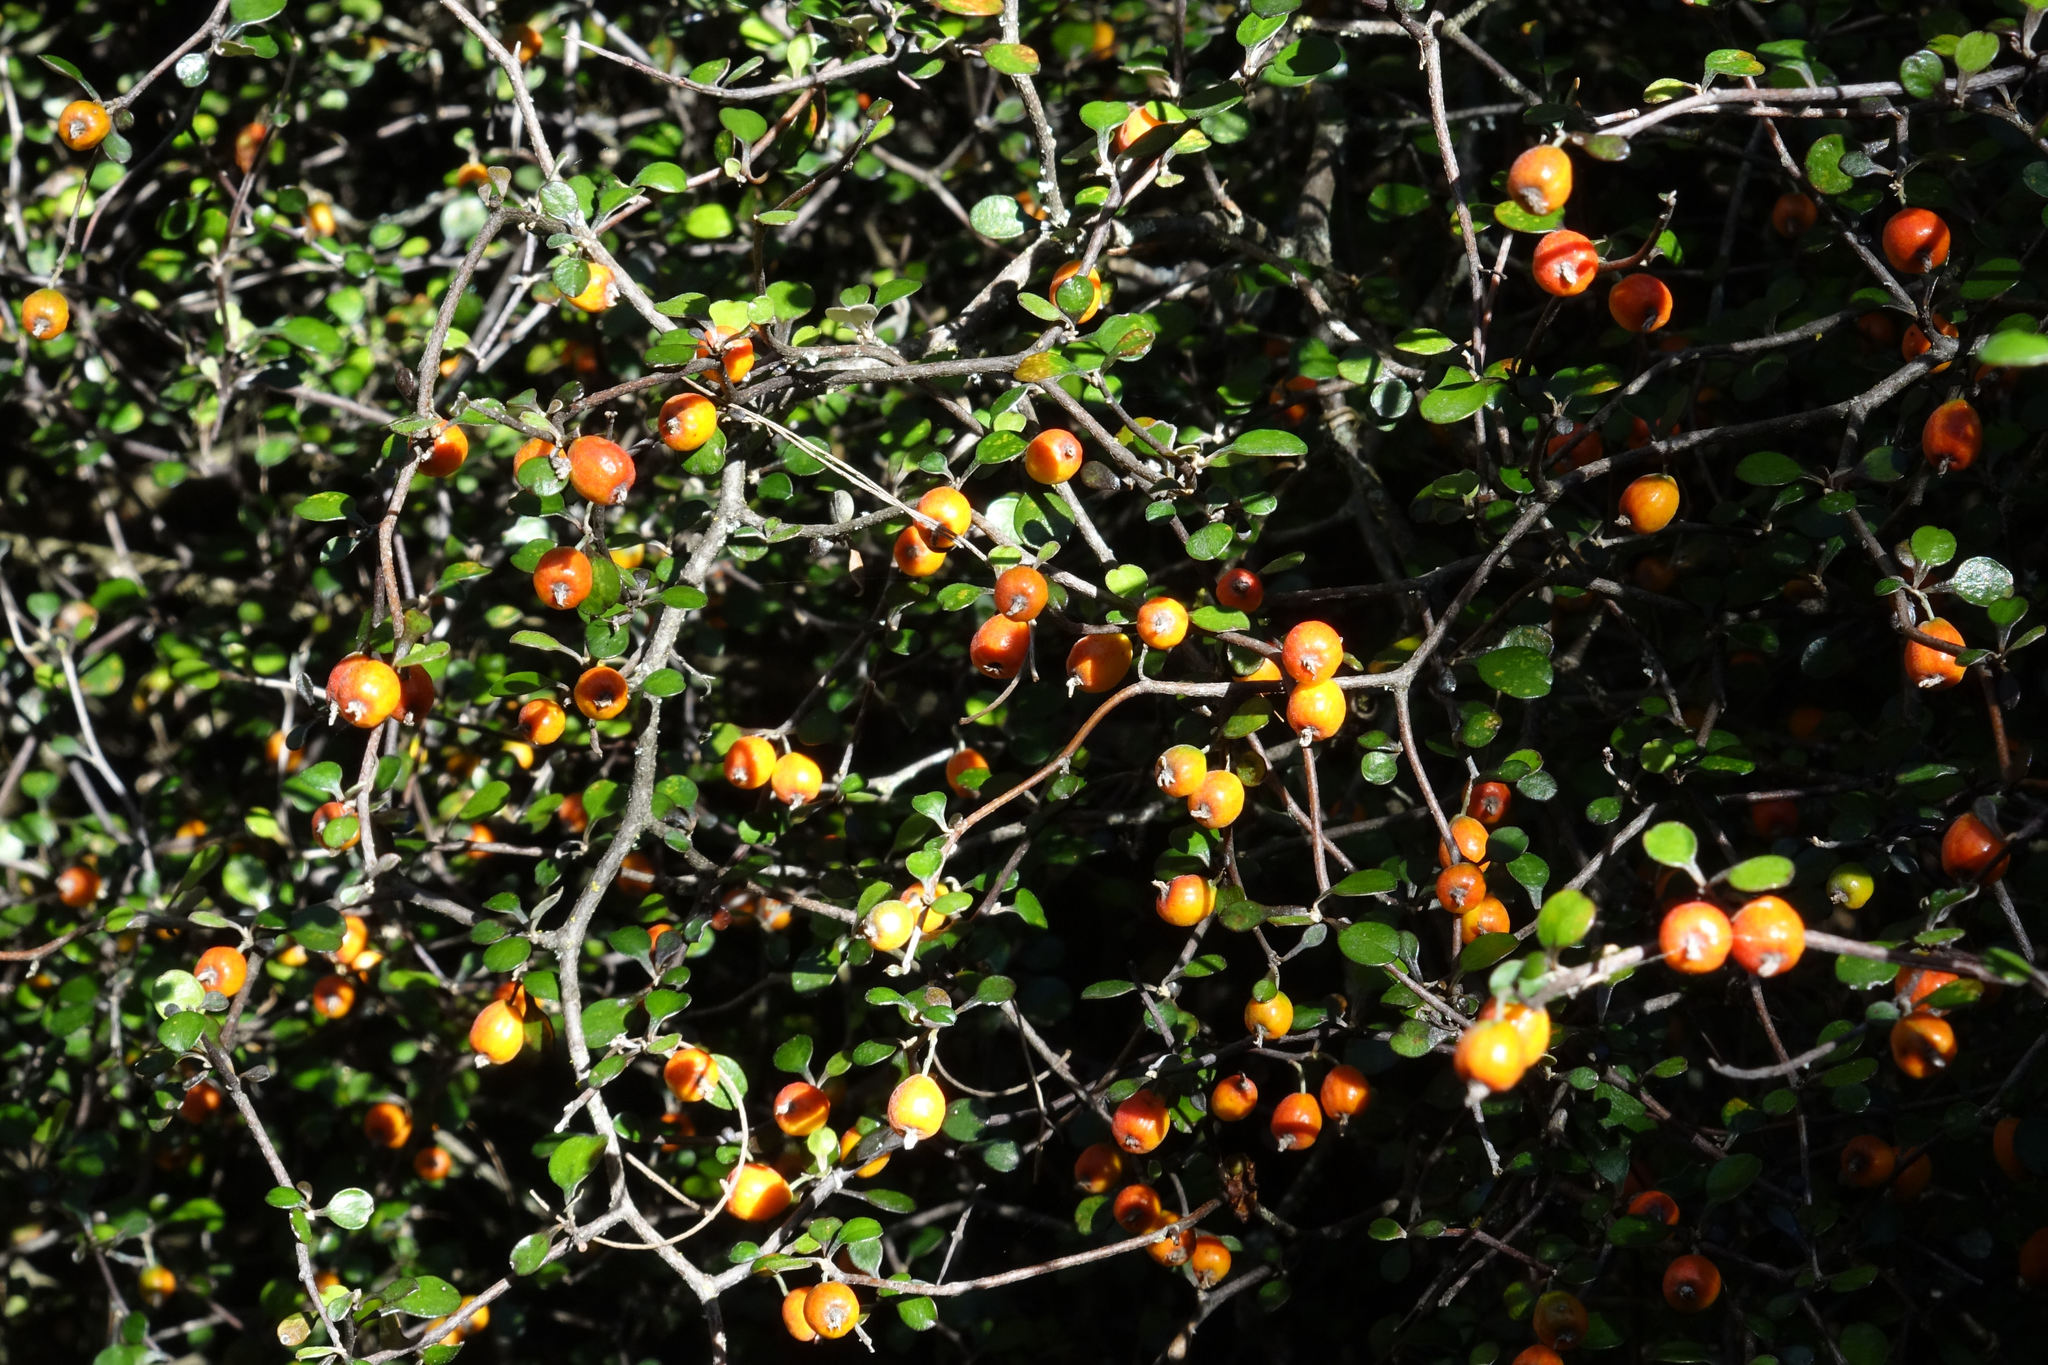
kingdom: Plantae
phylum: Tracheophyta
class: Magnoliopsida
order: Asterales
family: Argophyllaceae
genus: Corokia
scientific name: Corokia cotoneaster
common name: Wire nettingbush
